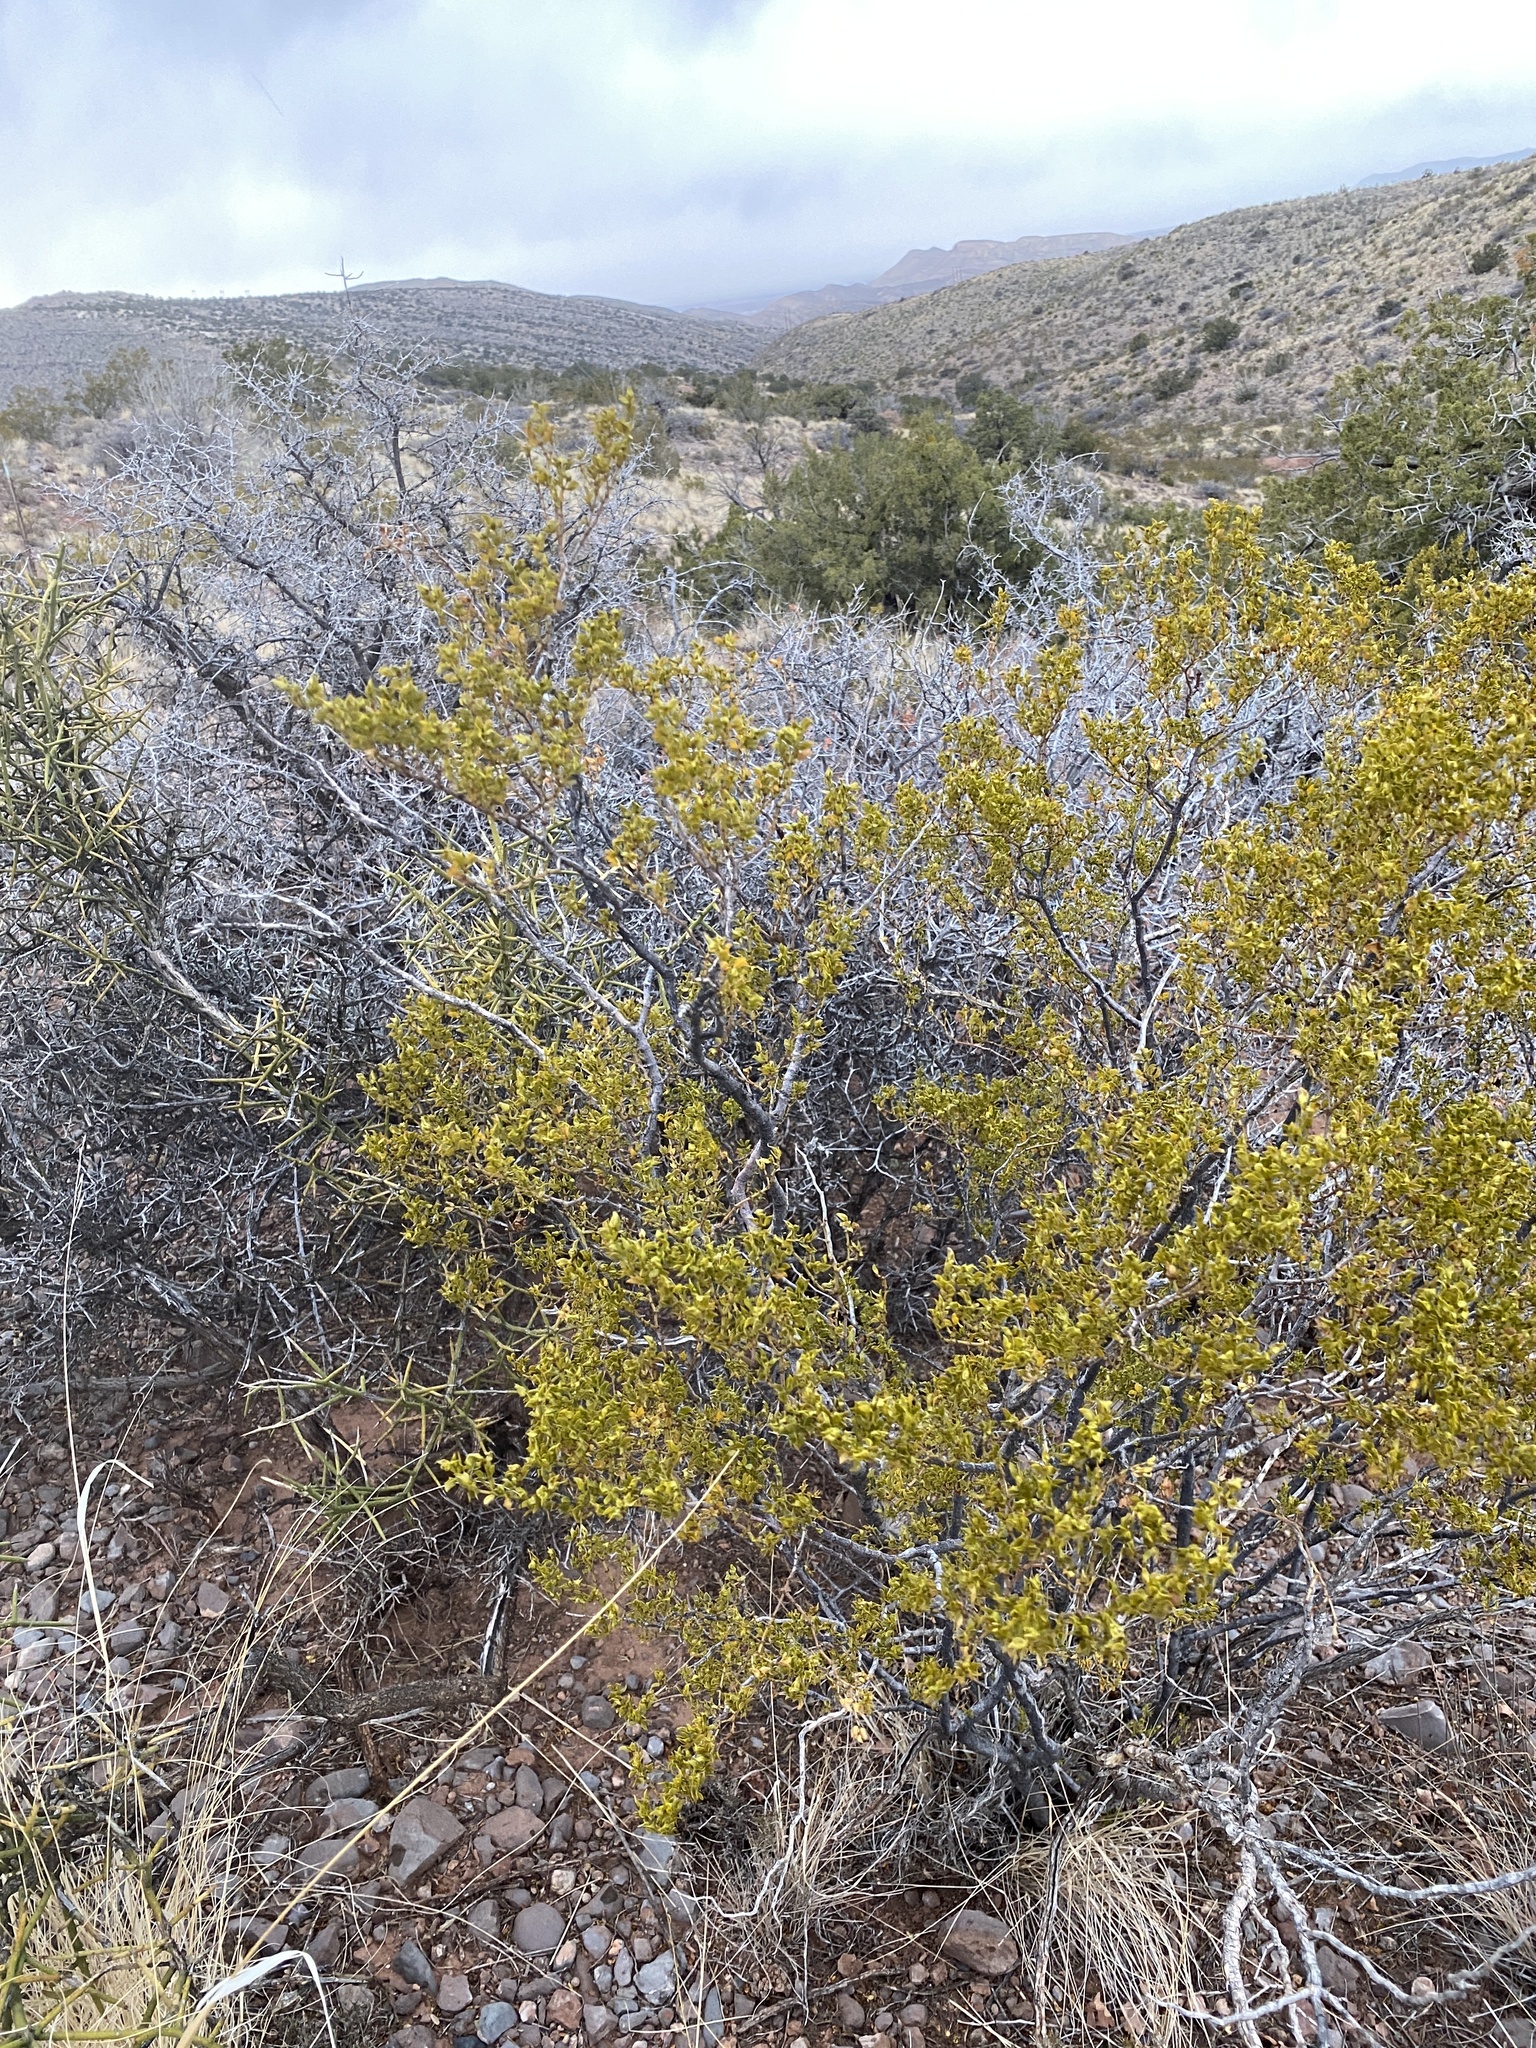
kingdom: Plantae
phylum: Tracheophyta
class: Magnoliopsida
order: Zygophyllales
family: Zygophyllaceae
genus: Larrea
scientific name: Larrea tridentata
